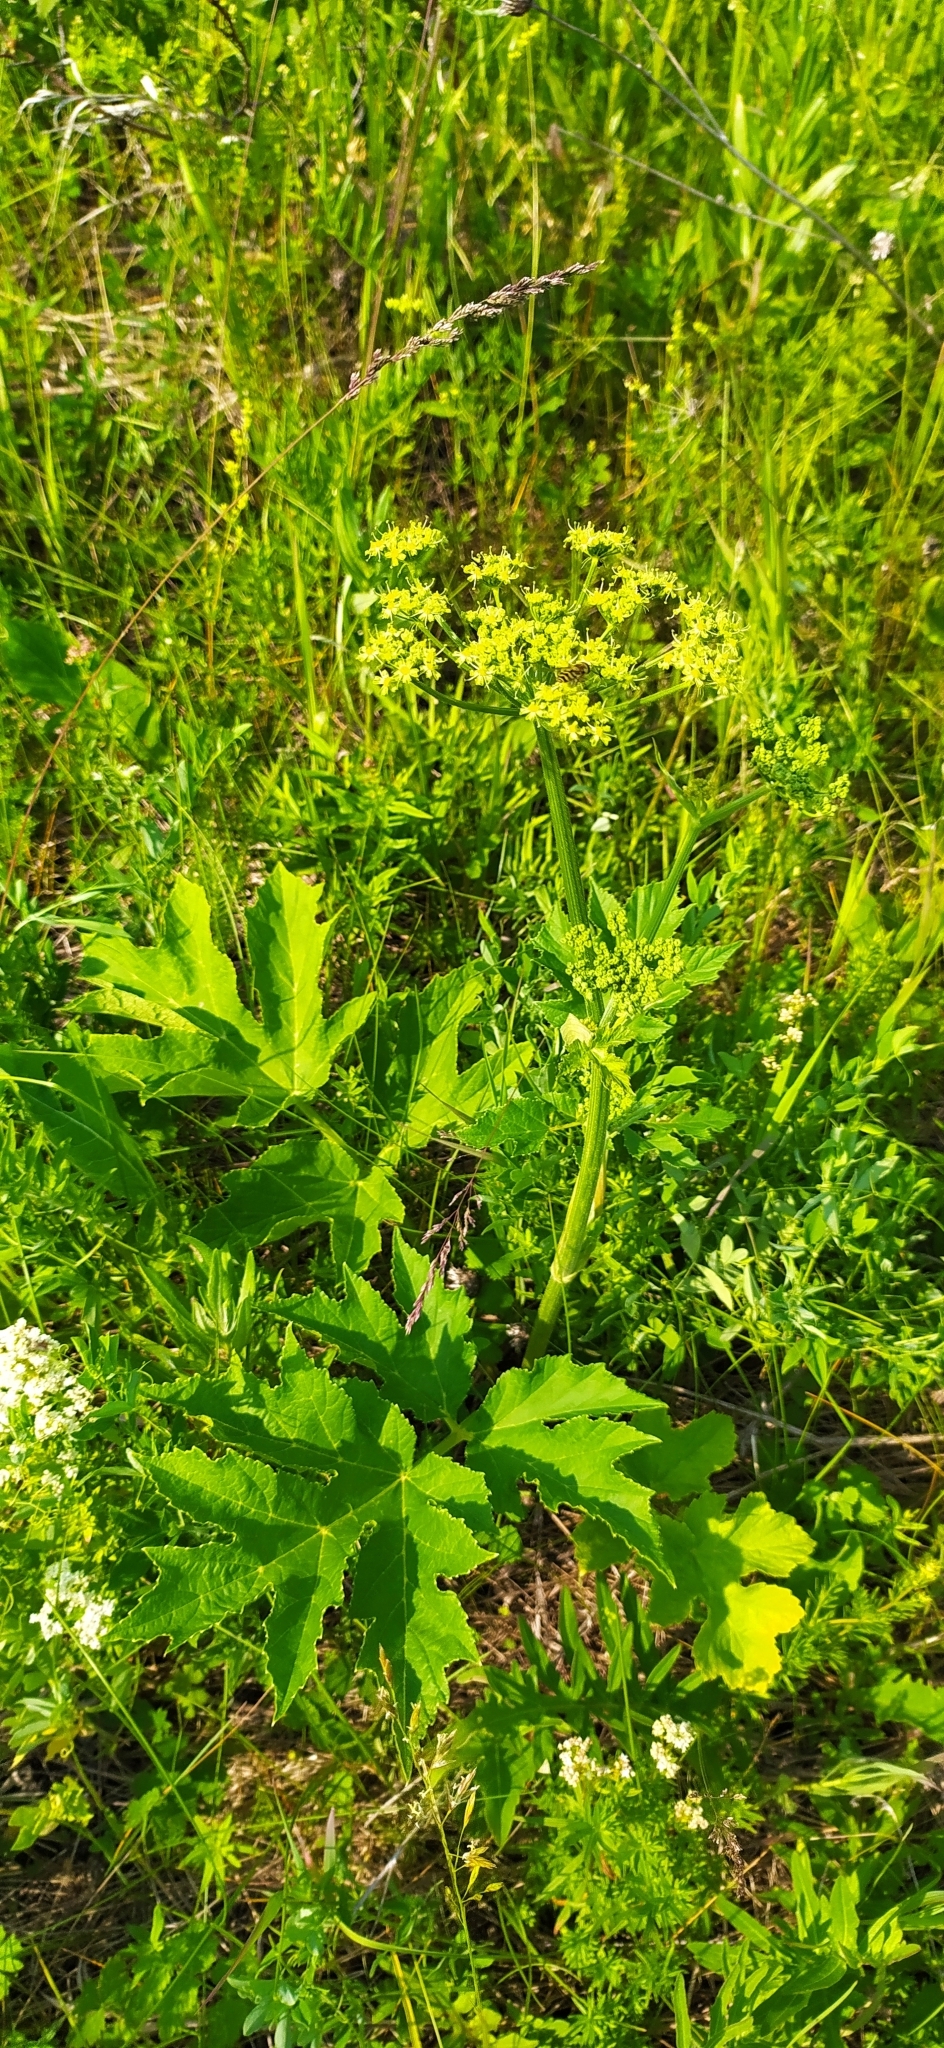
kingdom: Plantae
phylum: Tracheophyta
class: Magnoliopsida
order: Apiales
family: Apiaceae
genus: Heracleum
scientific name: Heracleum sphondylium
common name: Hogweed
